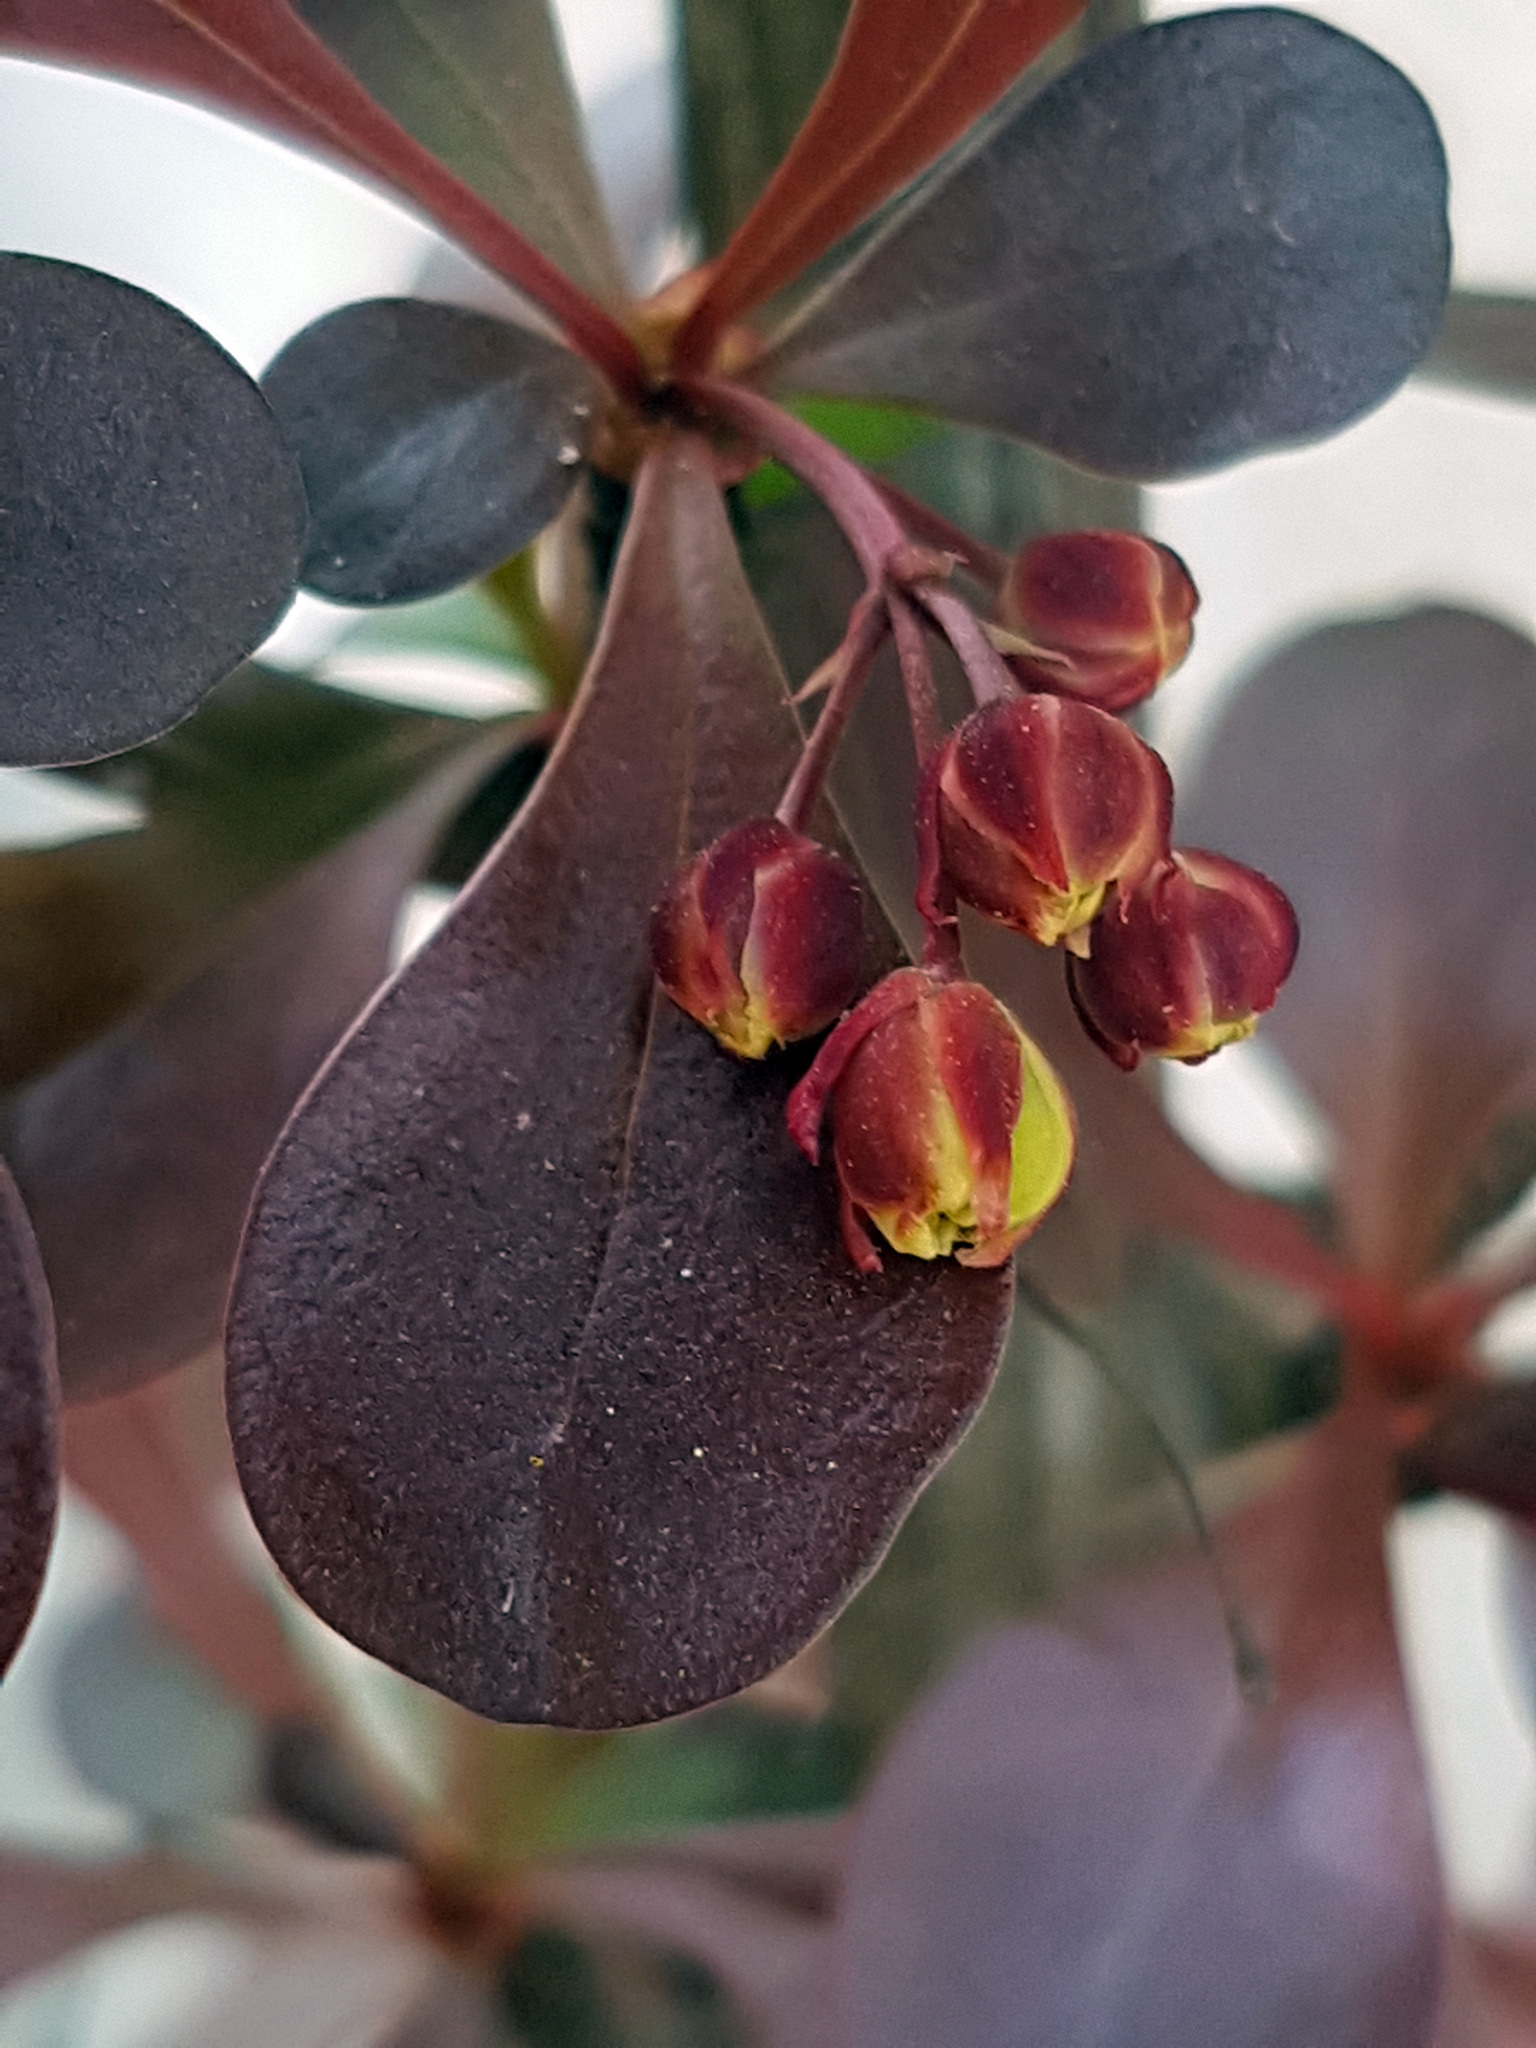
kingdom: Plantae
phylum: Tracheophyta
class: Magnoliopsida
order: Ranunculales
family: Berberidaceae
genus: Berberis
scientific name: Berberis thunbergii
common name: Japanese barberry
